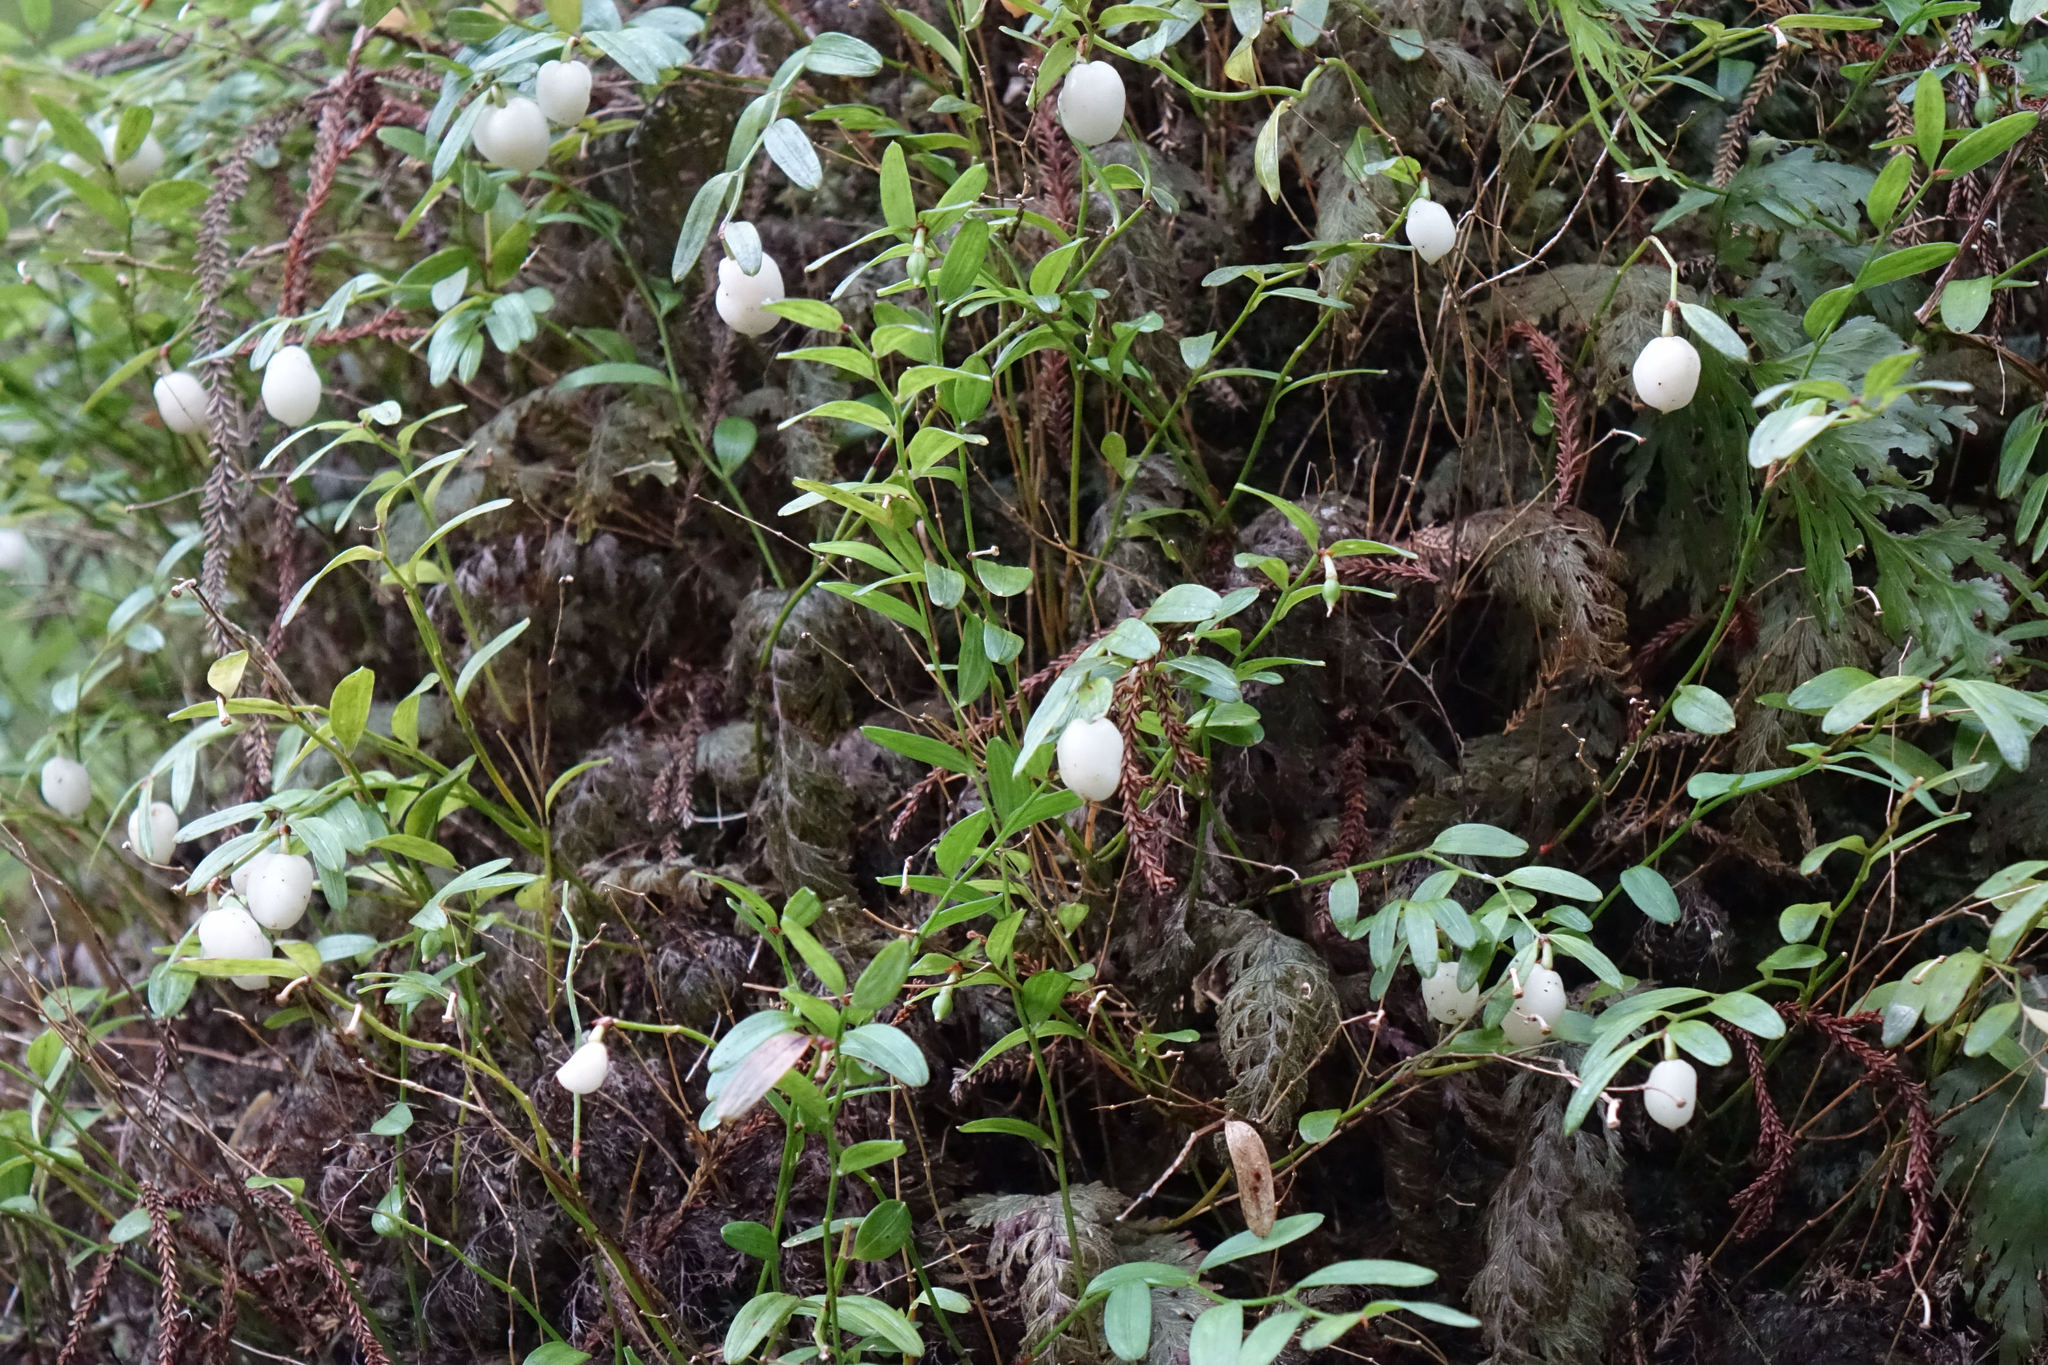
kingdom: Plantae
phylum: Tracheophyta
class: Liliopsida
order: Liliales
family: Alstroemeriaceae
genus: Luzuriaga
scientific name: Luzuriaga parviflora
